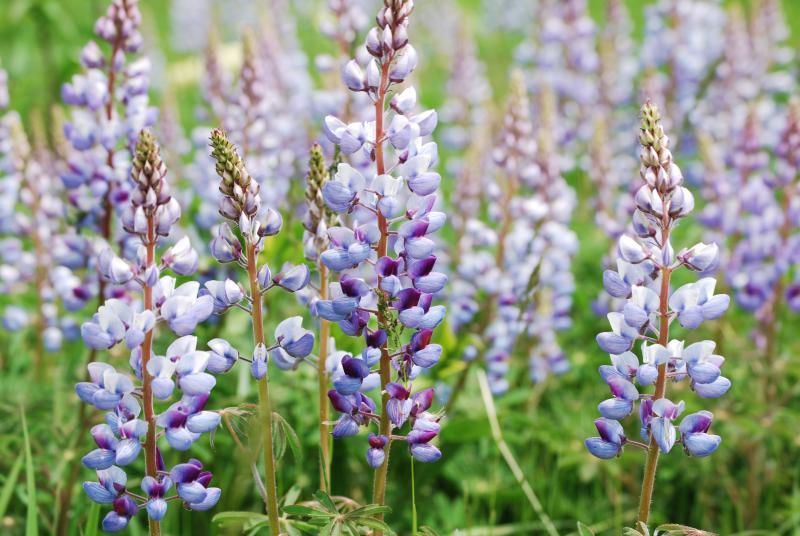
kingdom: Plantae
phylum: Tracheophyta
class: Magnoliopsida
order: Fabales
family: Fabaceae
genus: Lupinus
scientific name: Lupinus perennis
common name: Sundial lupine
